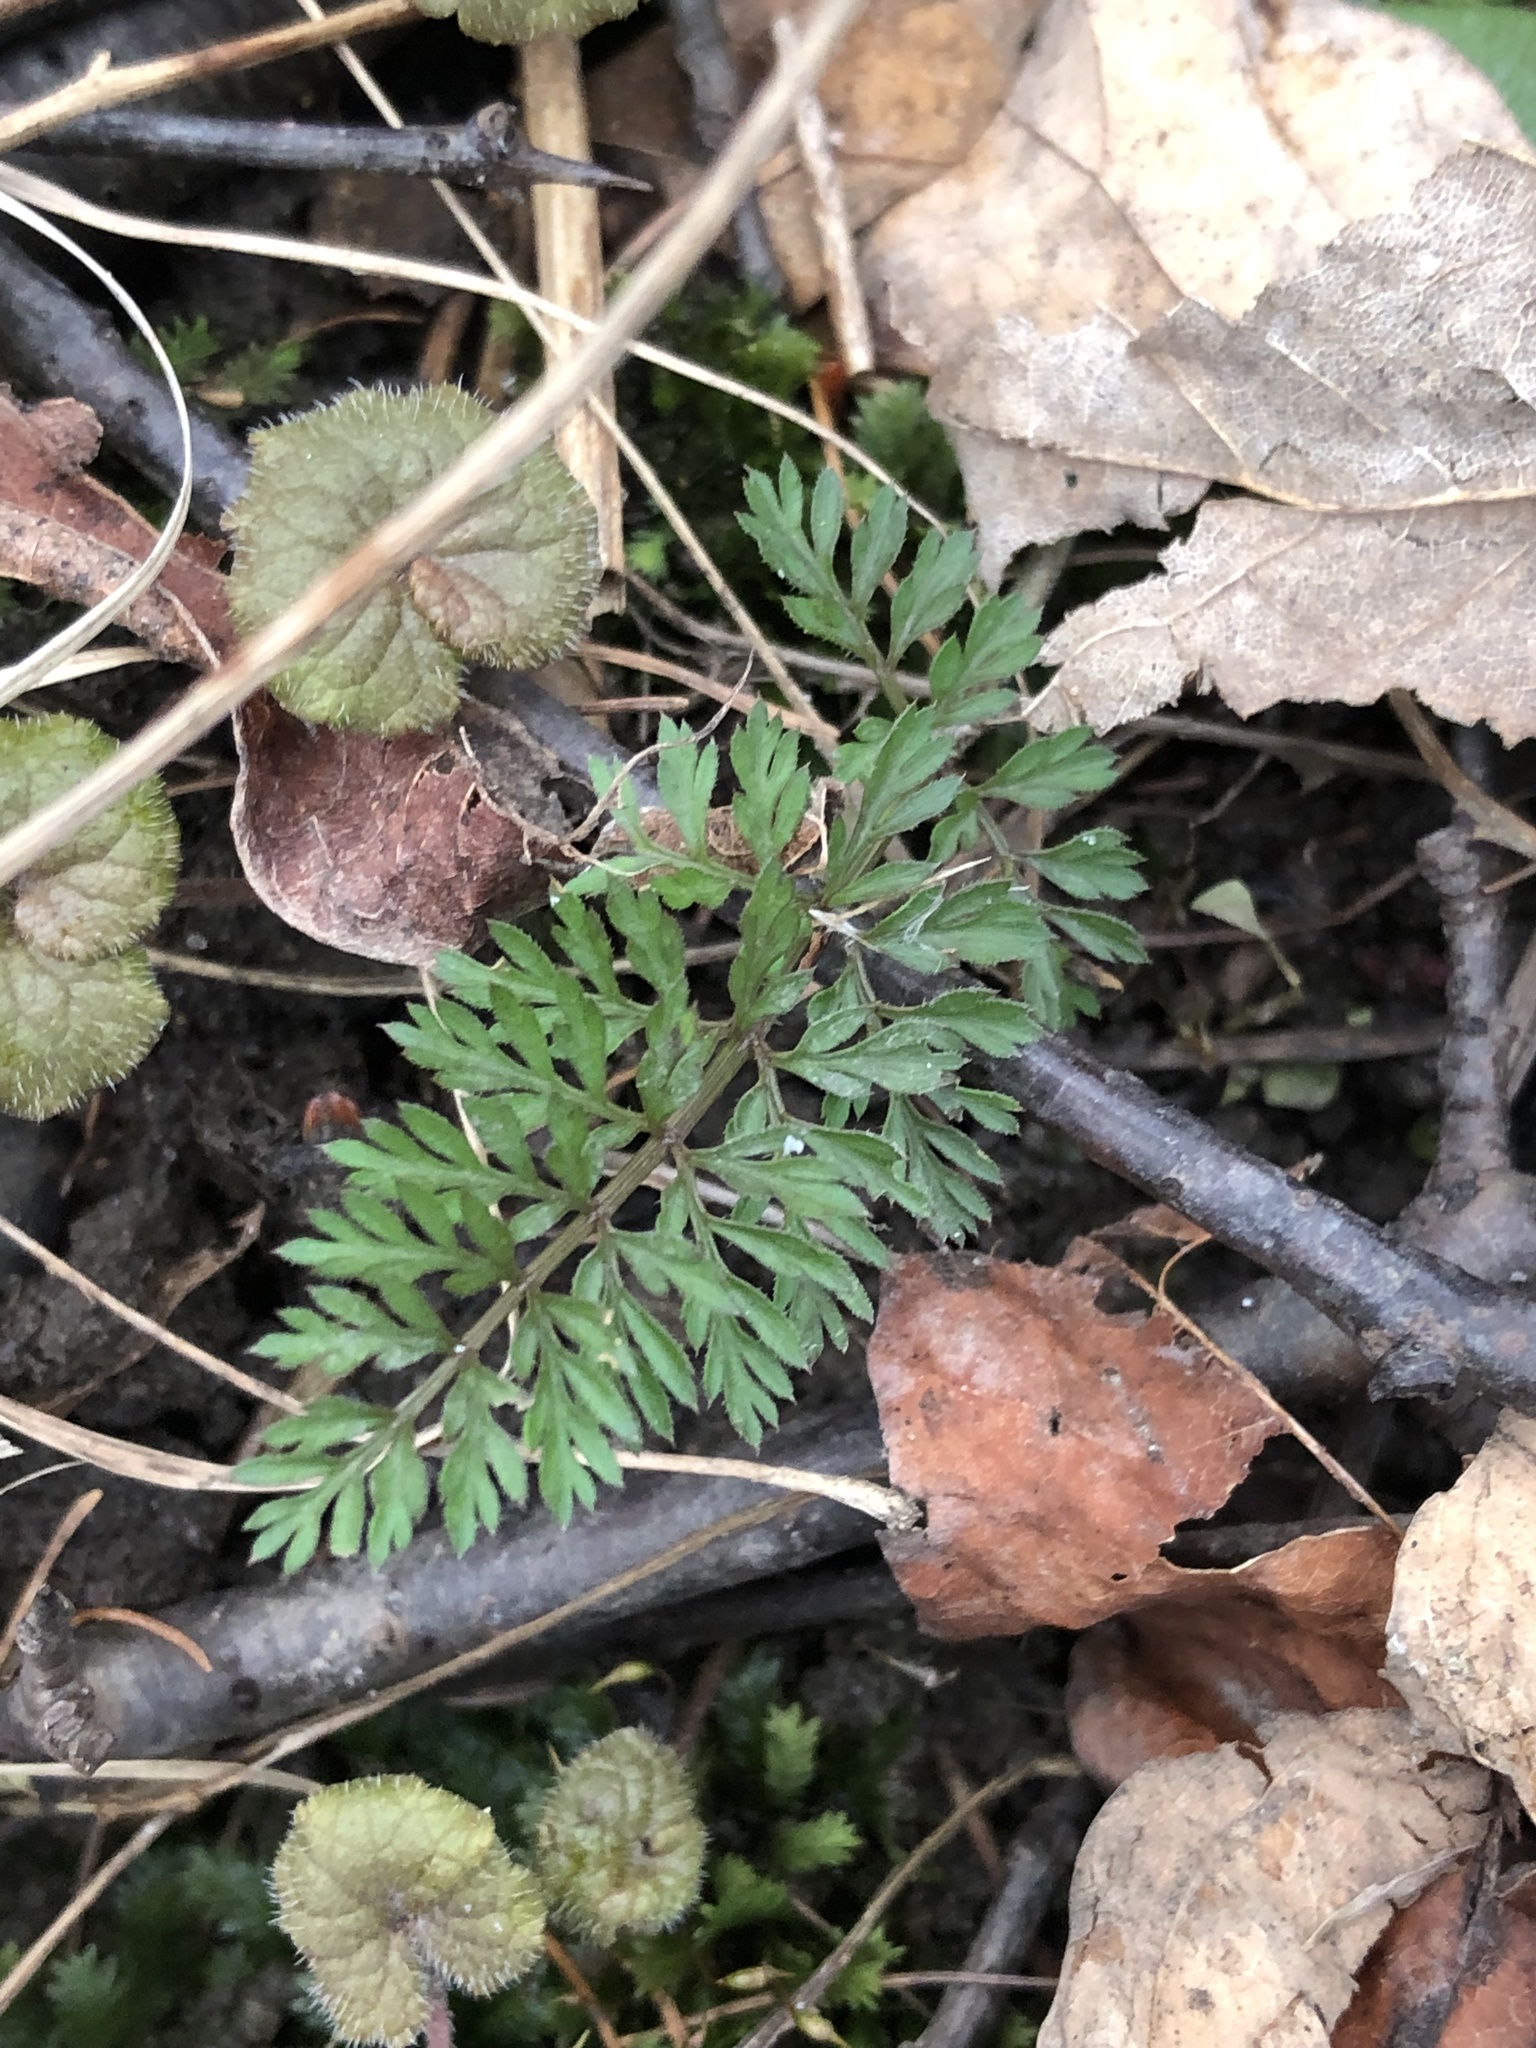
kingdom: Plantae
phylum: Tracheophyta
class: Magnoliopsida
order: Apiales
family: Apiaceae
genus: Daucus
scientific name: Daucus carota
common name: Wild carrot
